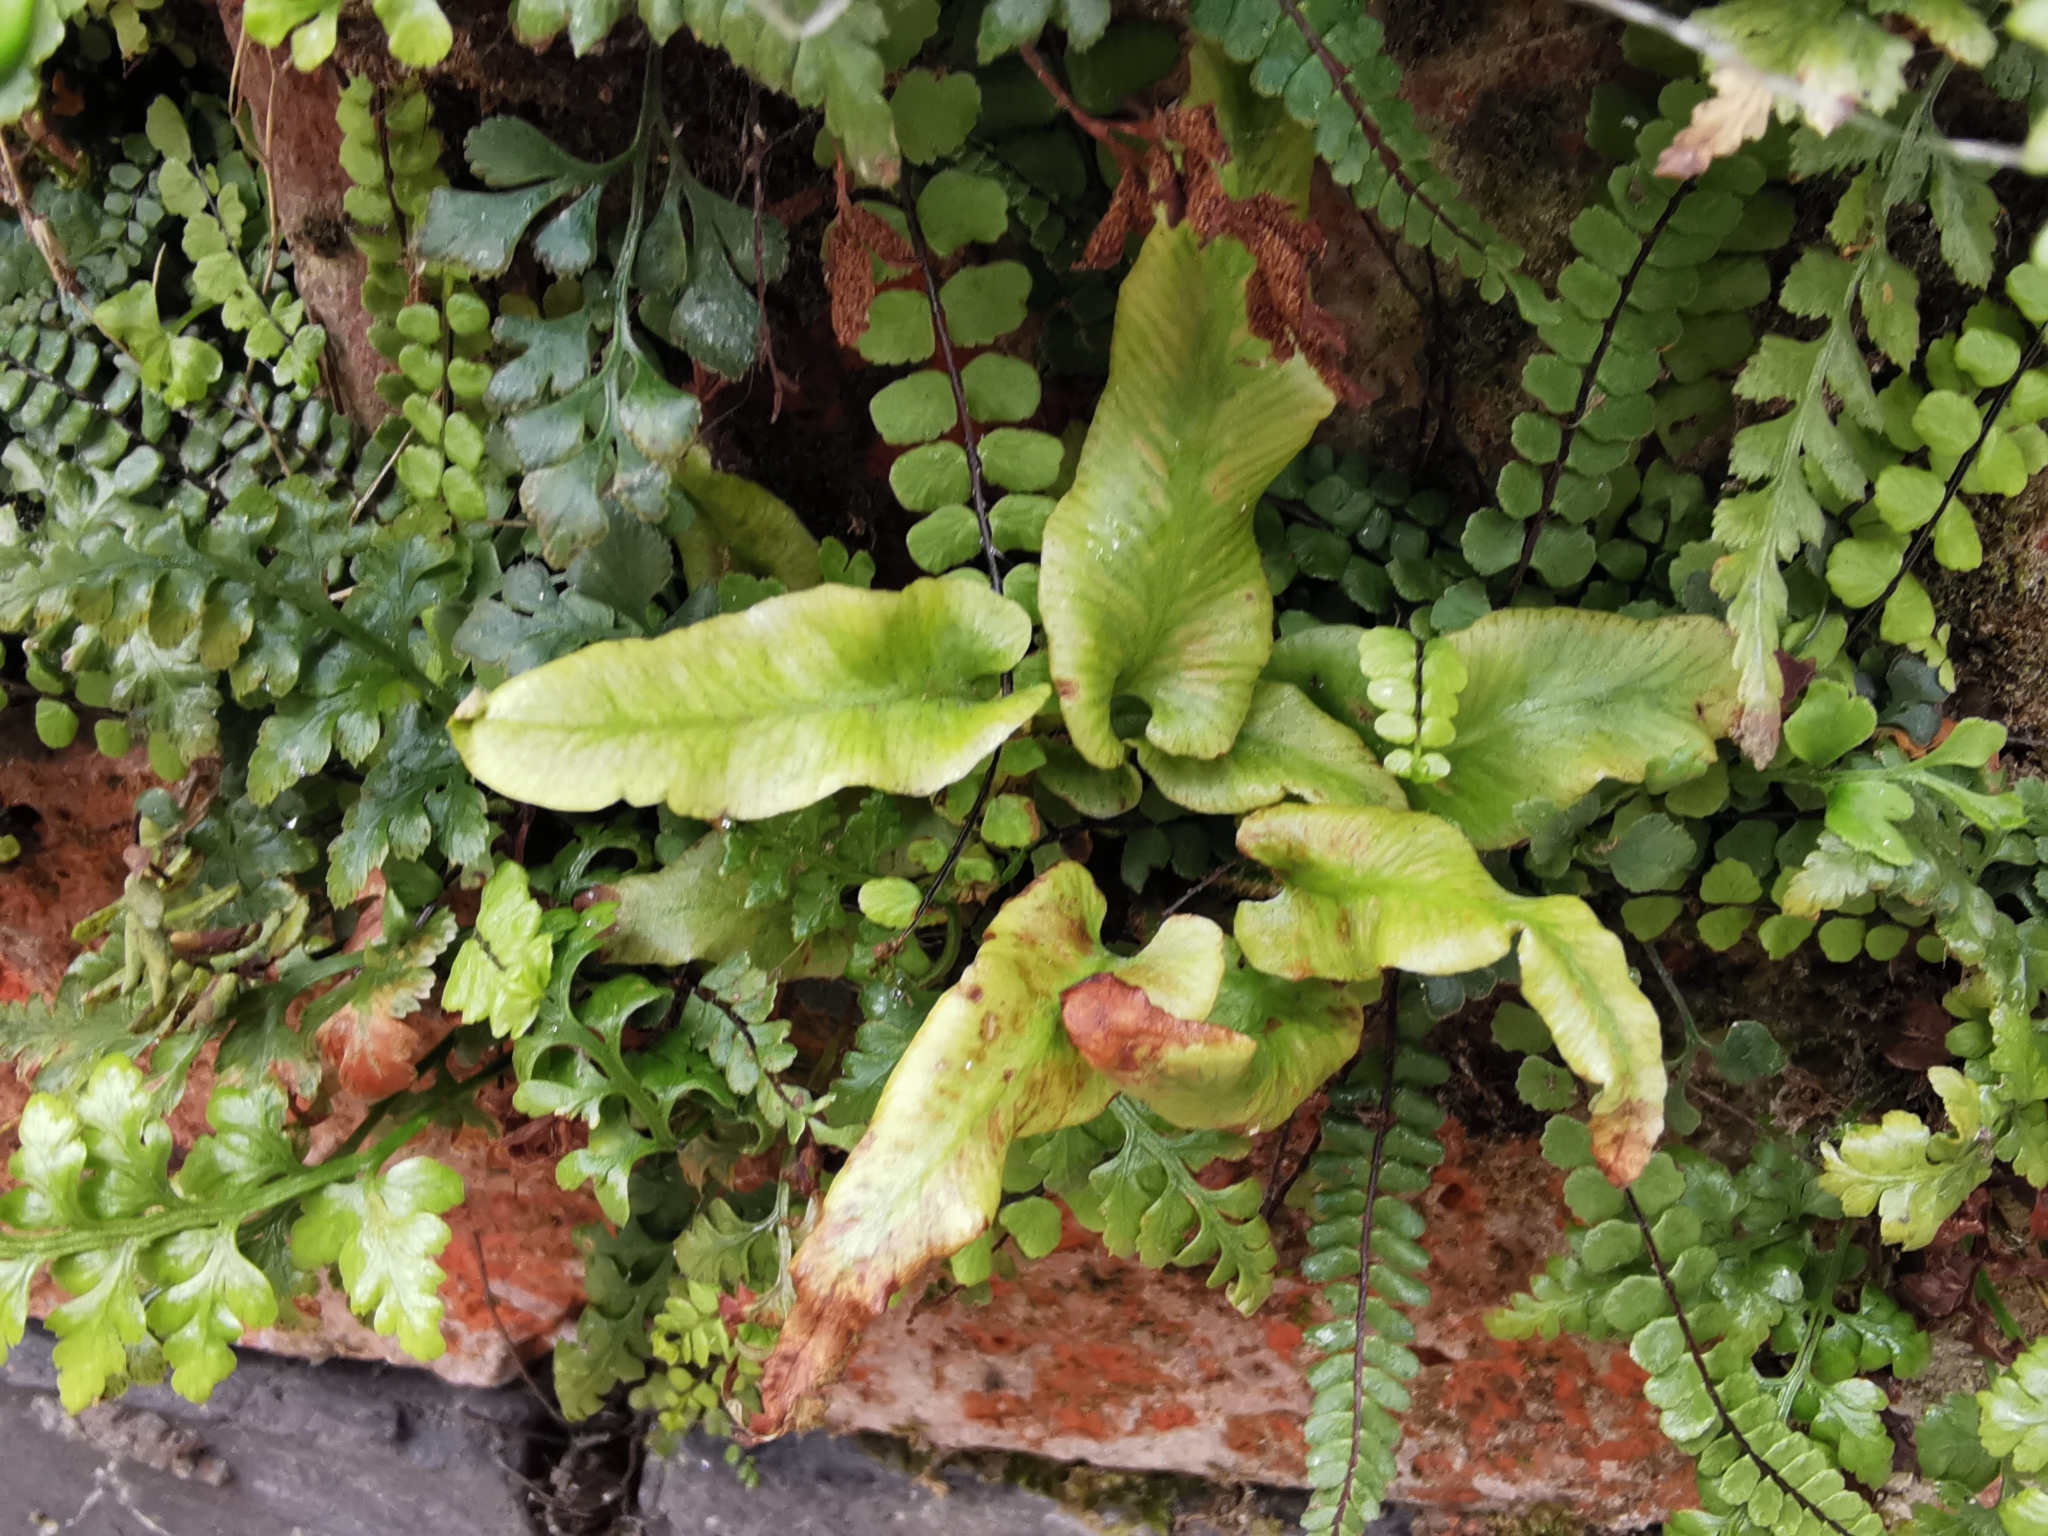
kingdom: Plantae
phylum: Tracheophyta
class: Polypodiopsida
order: Polypodiales
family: Aspleniaceae
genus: Asplenium
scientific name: Asplenium scolopendrium
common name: Hart's-tongue fern
